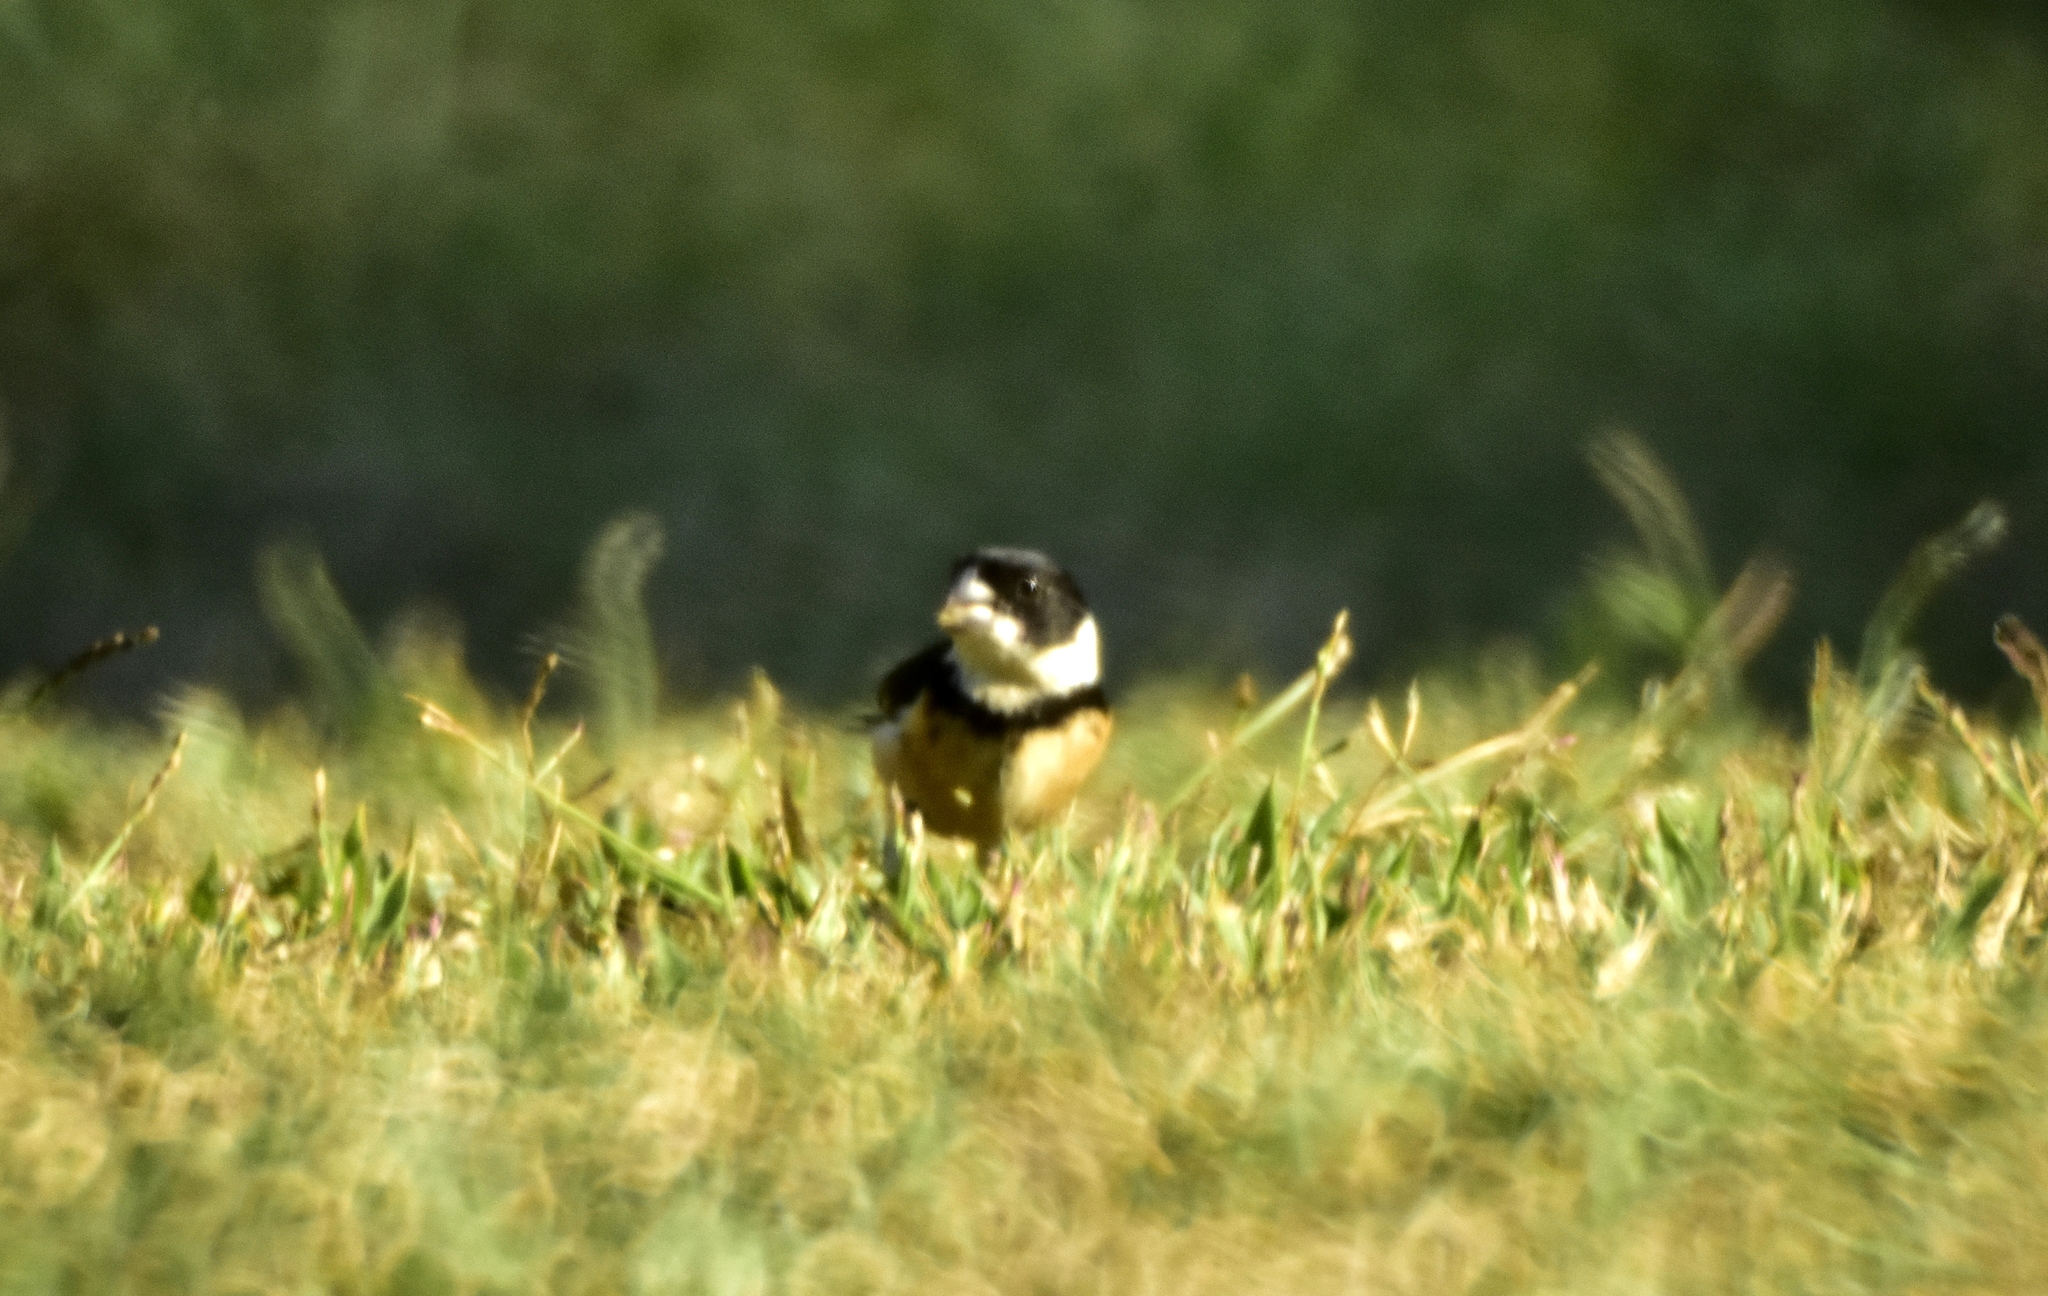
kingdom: Animalia
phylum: Chordata
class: Aves
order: Passeriformes
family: Thraupidae
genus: Sporophila
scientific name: Sporophila torqueola
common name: White-collared seedeater
